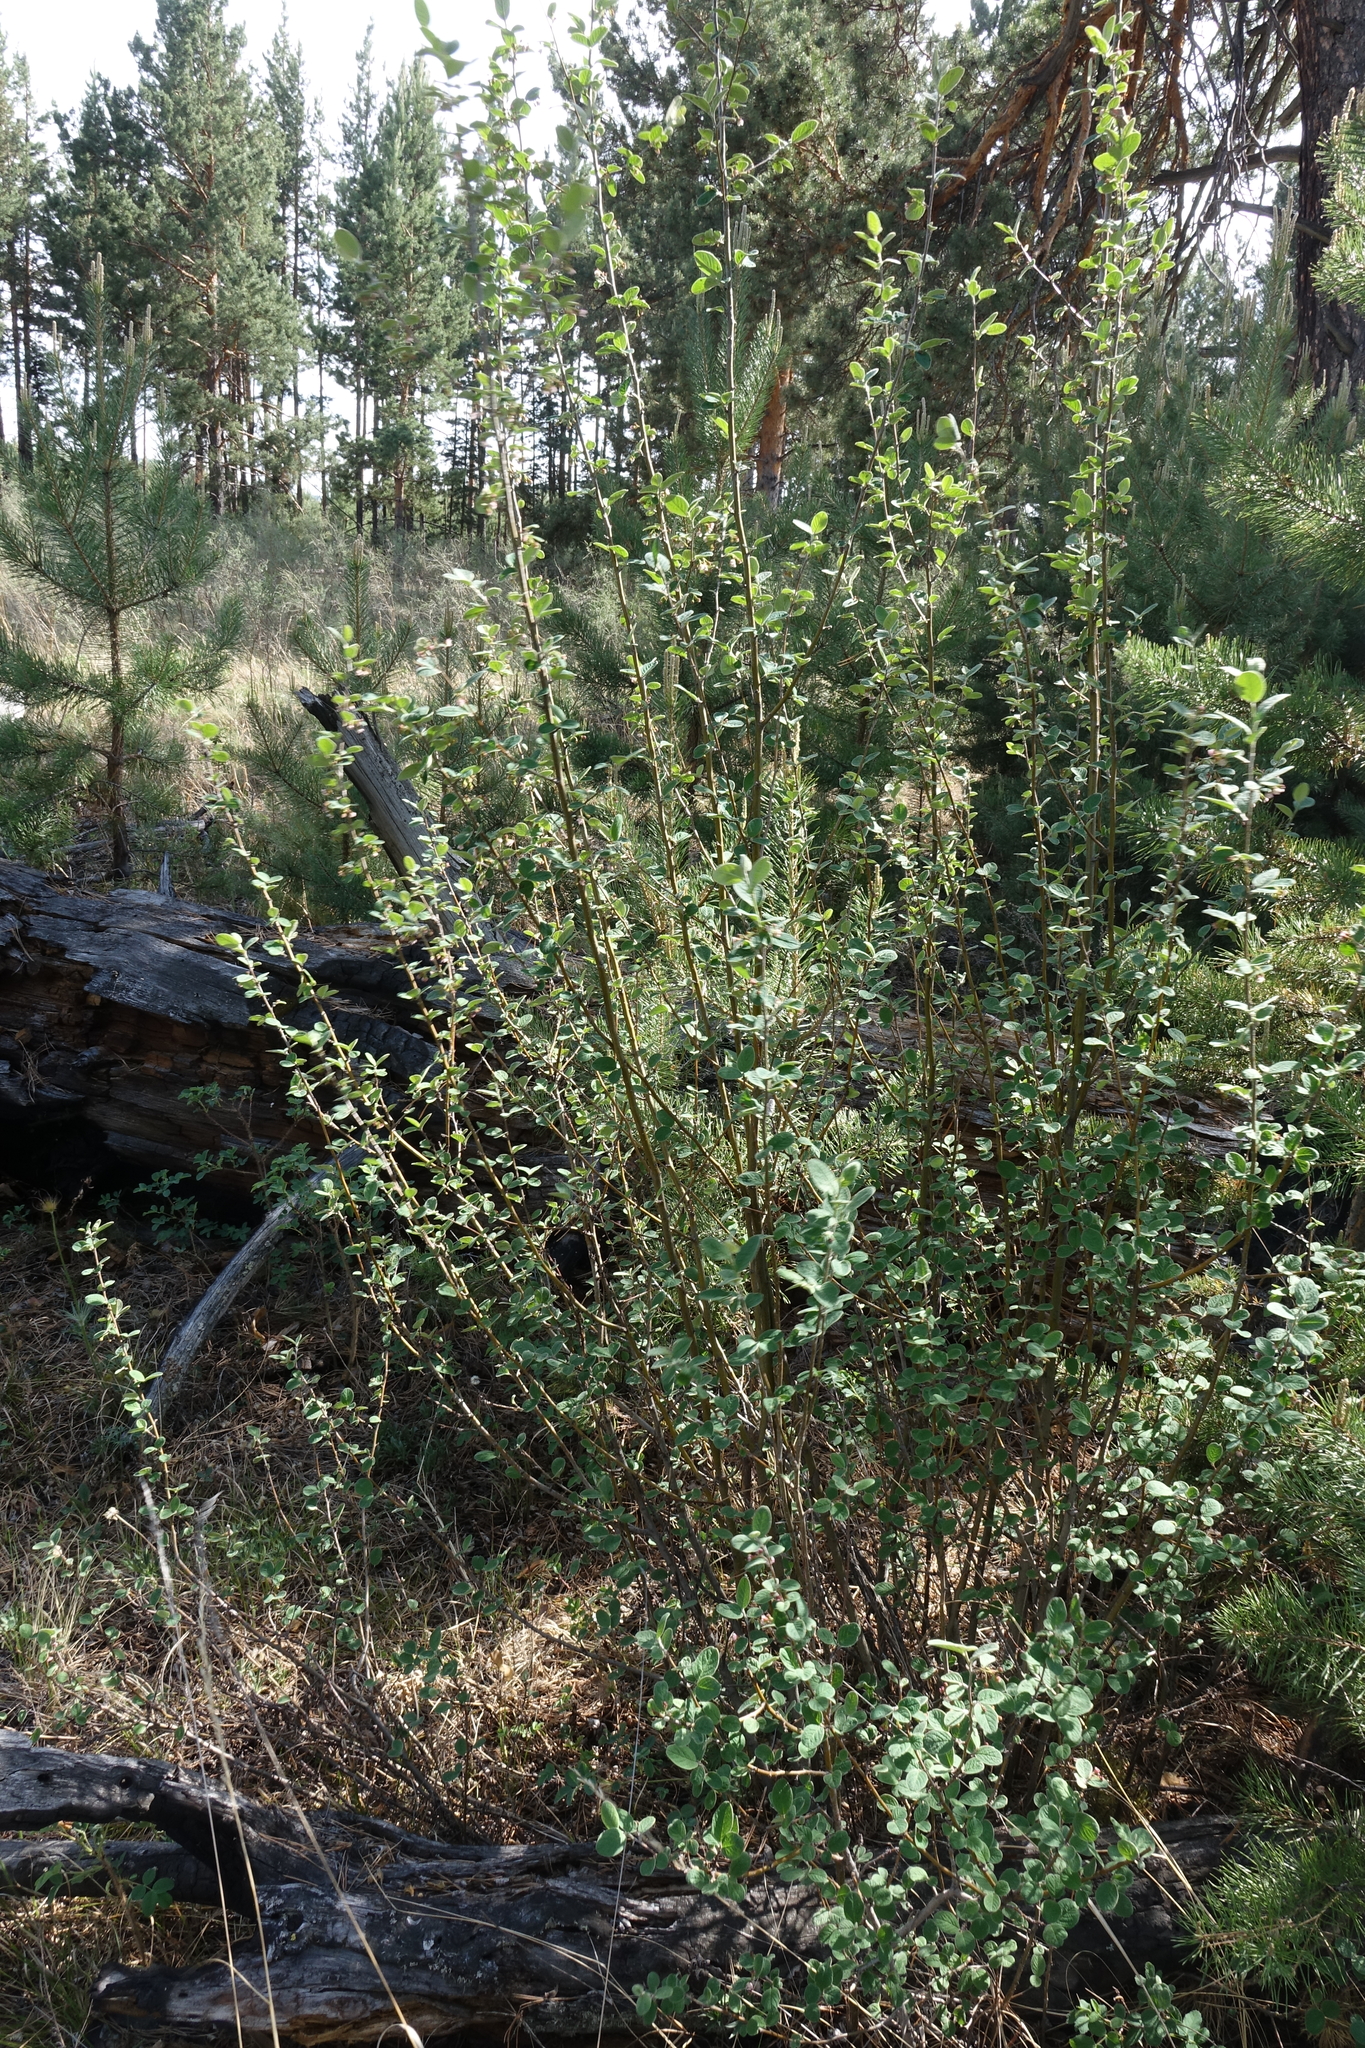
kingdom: Plantae
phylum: Tracheophyta
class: Magnoliopsida
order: Rosales
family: Rosaceae
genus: Cotoneaster
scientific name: Cotoneaster melanocarpus
